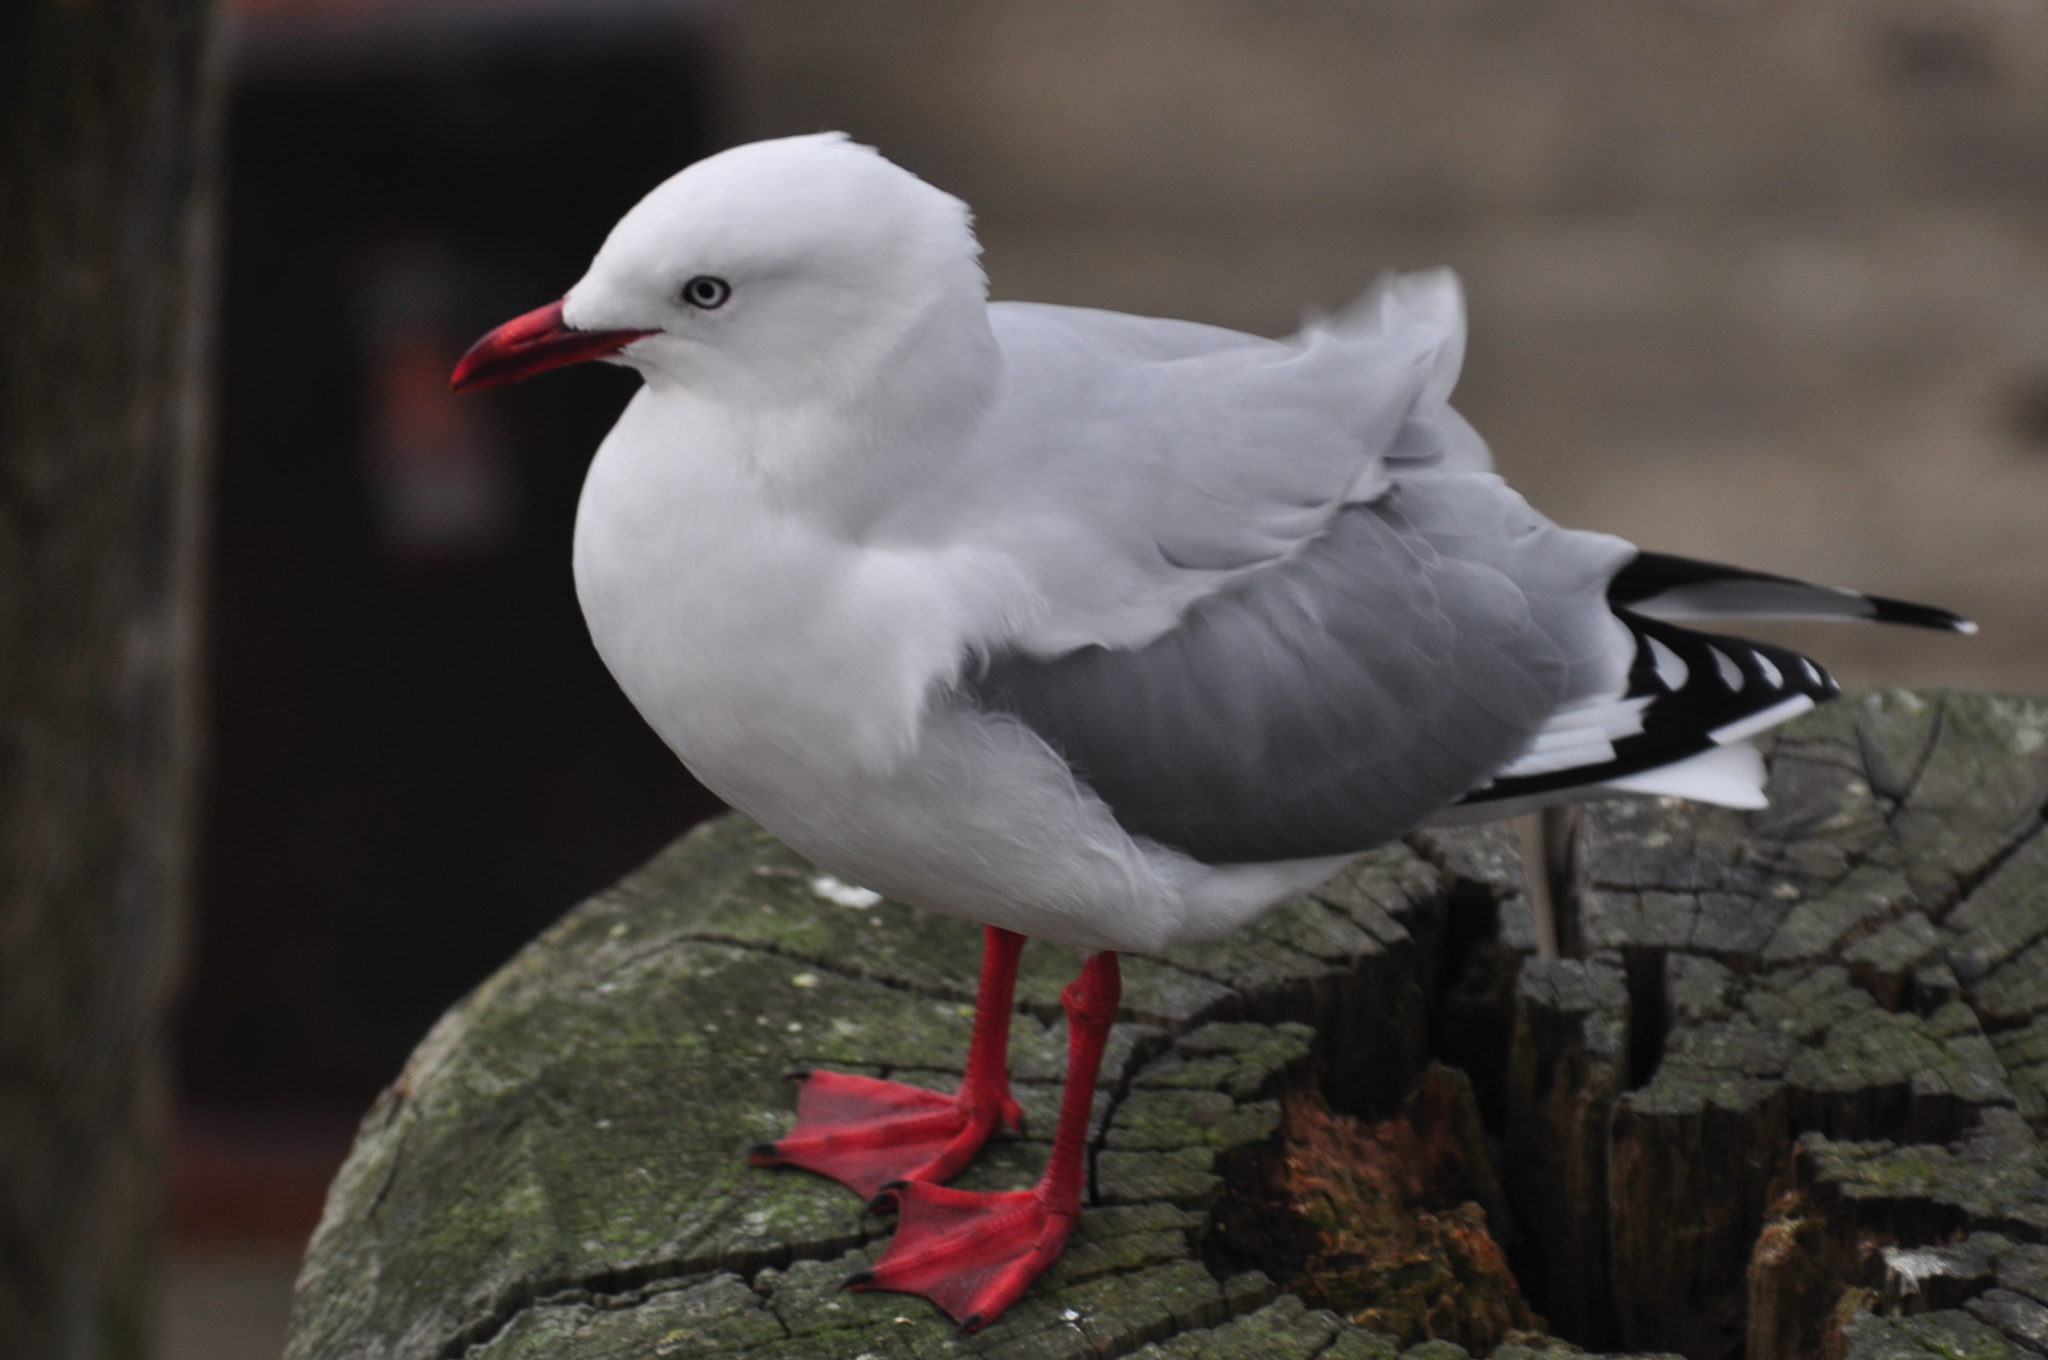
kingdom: Animalia
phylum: Chordata
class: Aves
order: Charadriiformes
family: Laridae
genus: Chroicocephalus
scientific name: Chroicocephalus novaehollandiae
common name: Silver gull
